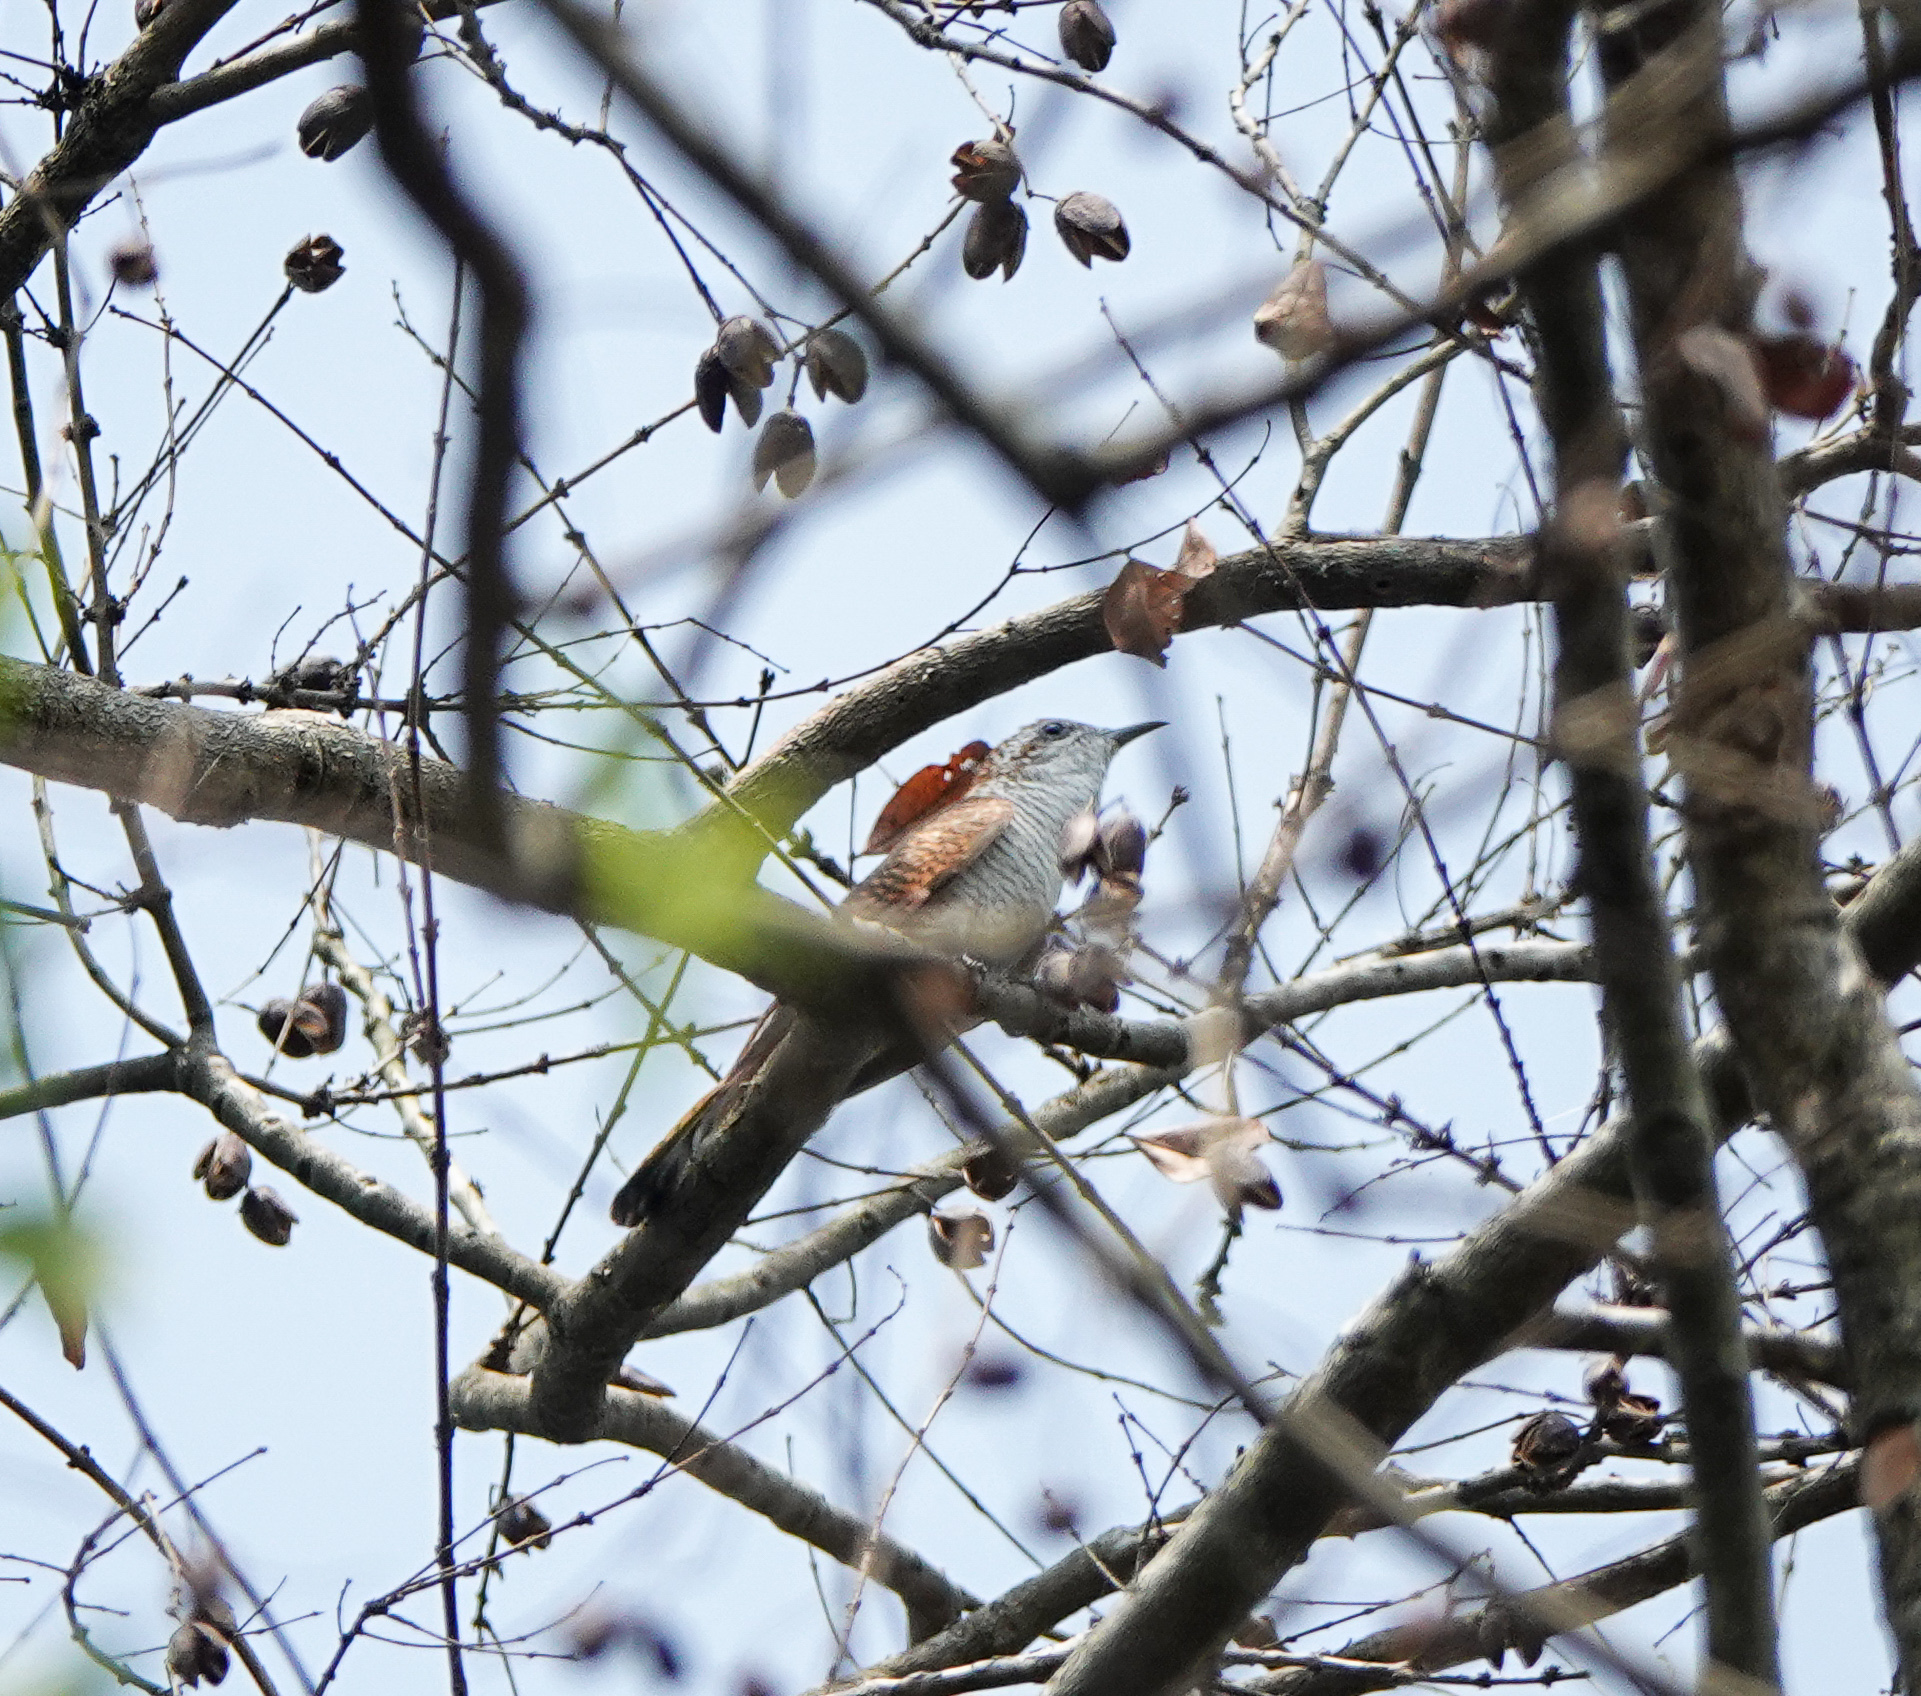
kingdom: Animalia
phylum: Chordata
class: Aves
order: Cuculiformes
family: Cuculidae
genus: Cacomantis
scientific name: Cacomantis sonneratii
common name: Banded bay cuckoo
